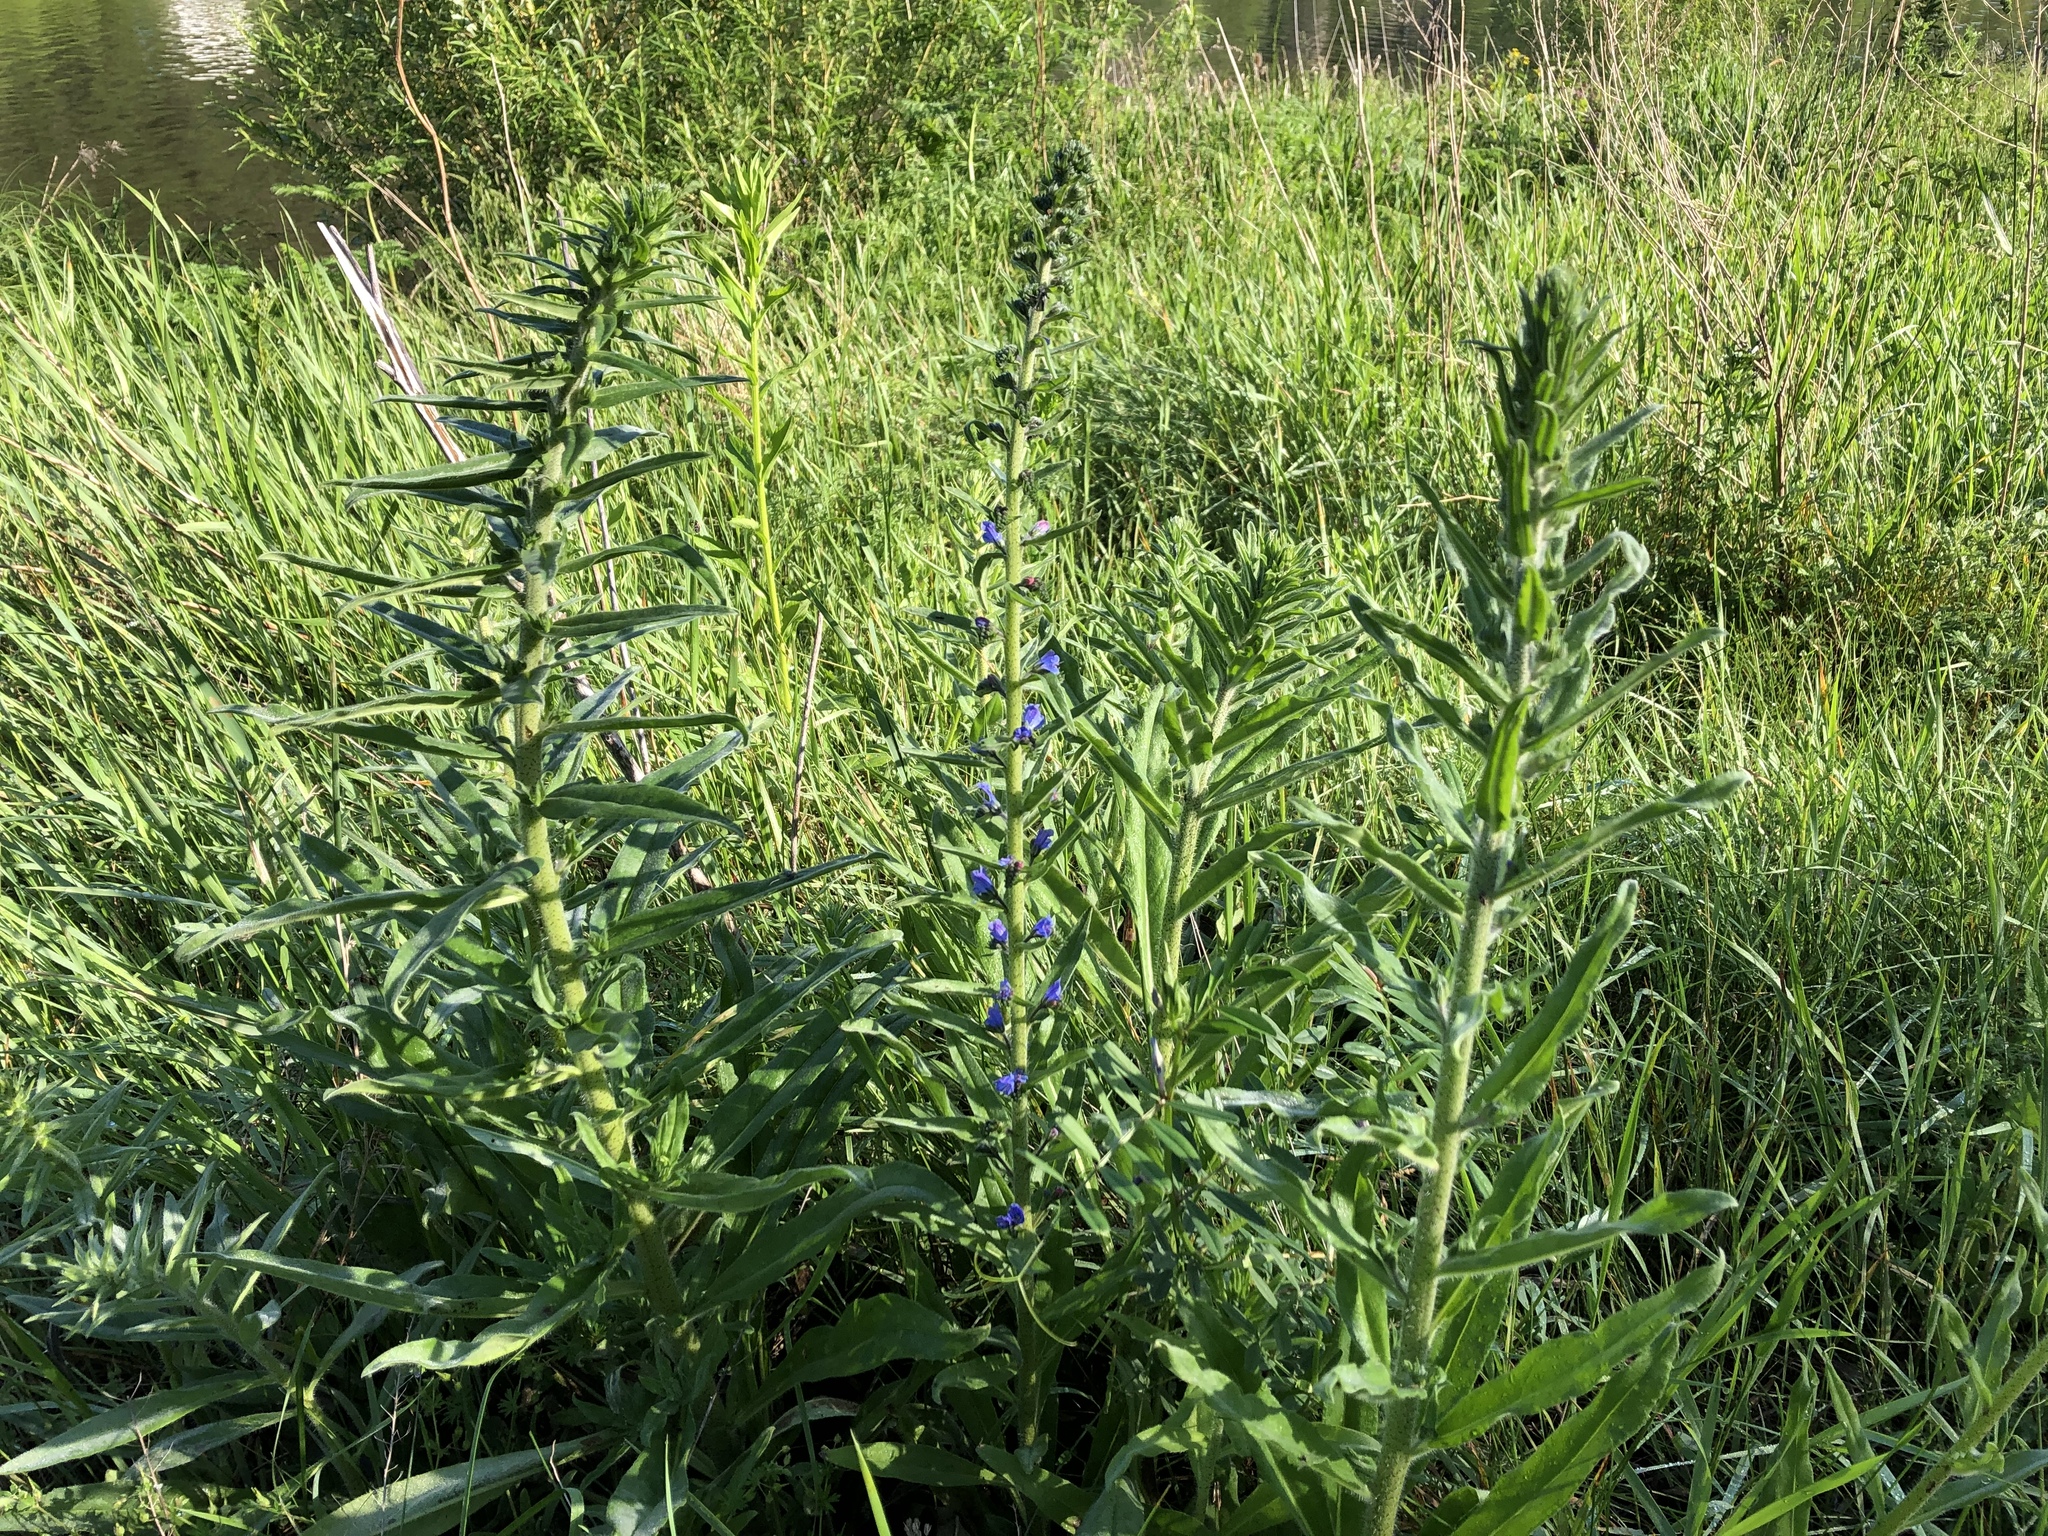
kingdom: Plantae
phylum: Tracheophyta
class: Magnoliopsida
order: Boraginales
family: Boraginaceae
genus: Echium
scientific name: Echium vulgare
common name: Common viper's bugloss
